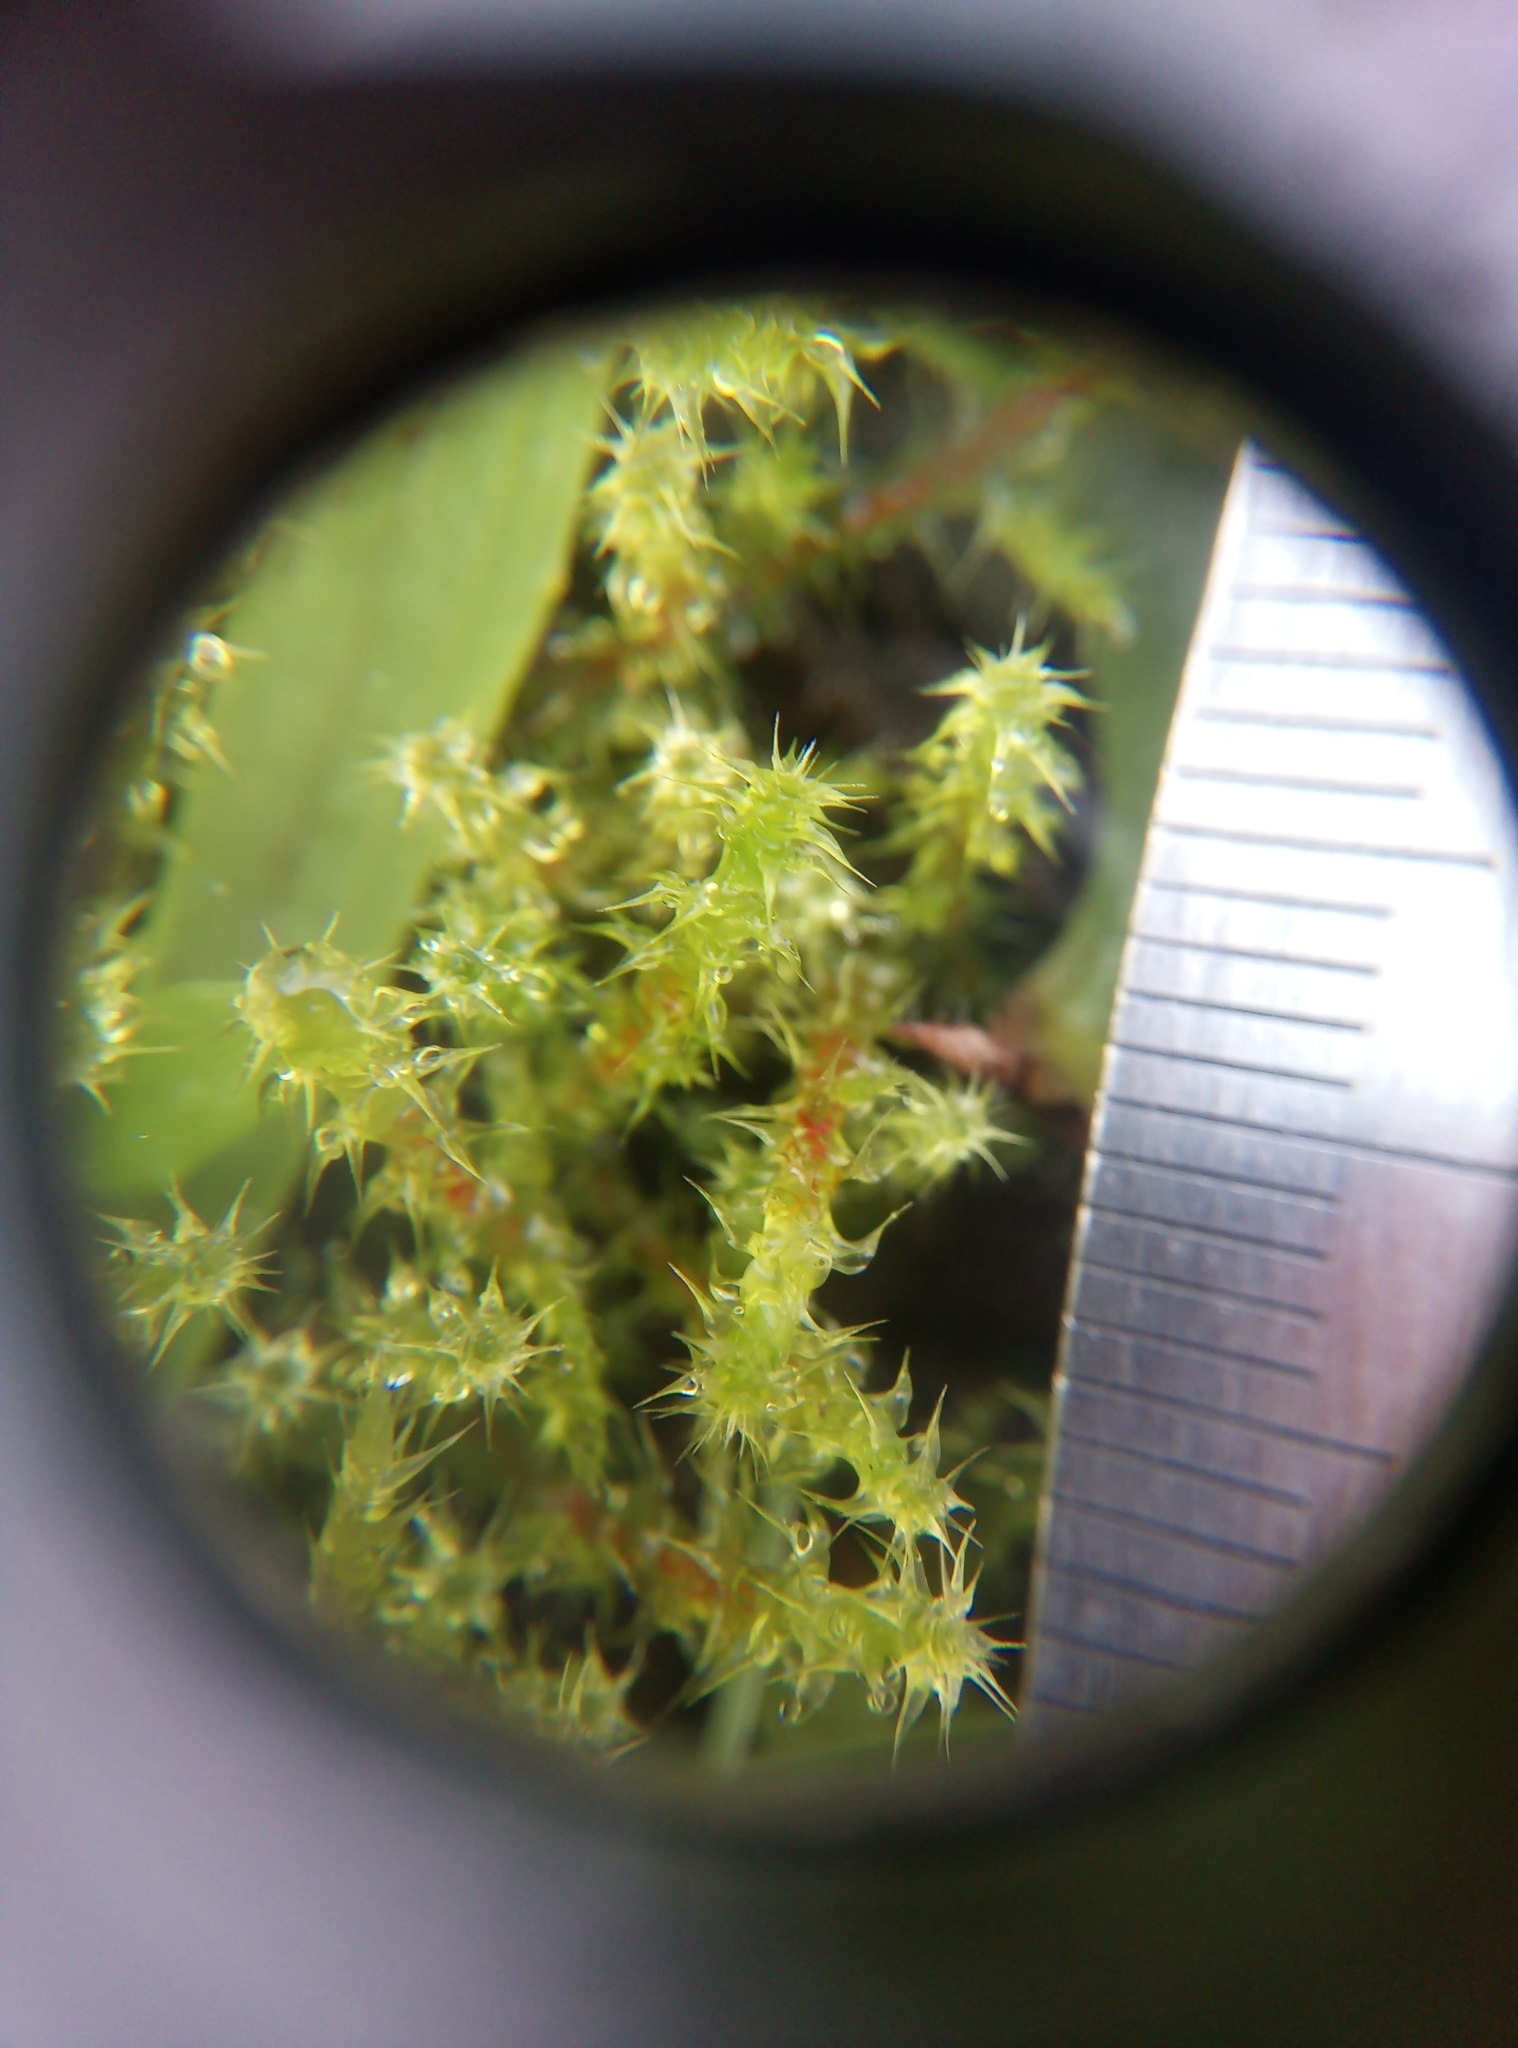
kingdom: Plantae
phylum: Bryophyta
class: Bryopsida
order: Hypnales
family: Hylocomiaceae
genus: Rhytidiadelphus
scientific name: Rhytidiadelphus squarrosus
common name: Springy turf-moss
